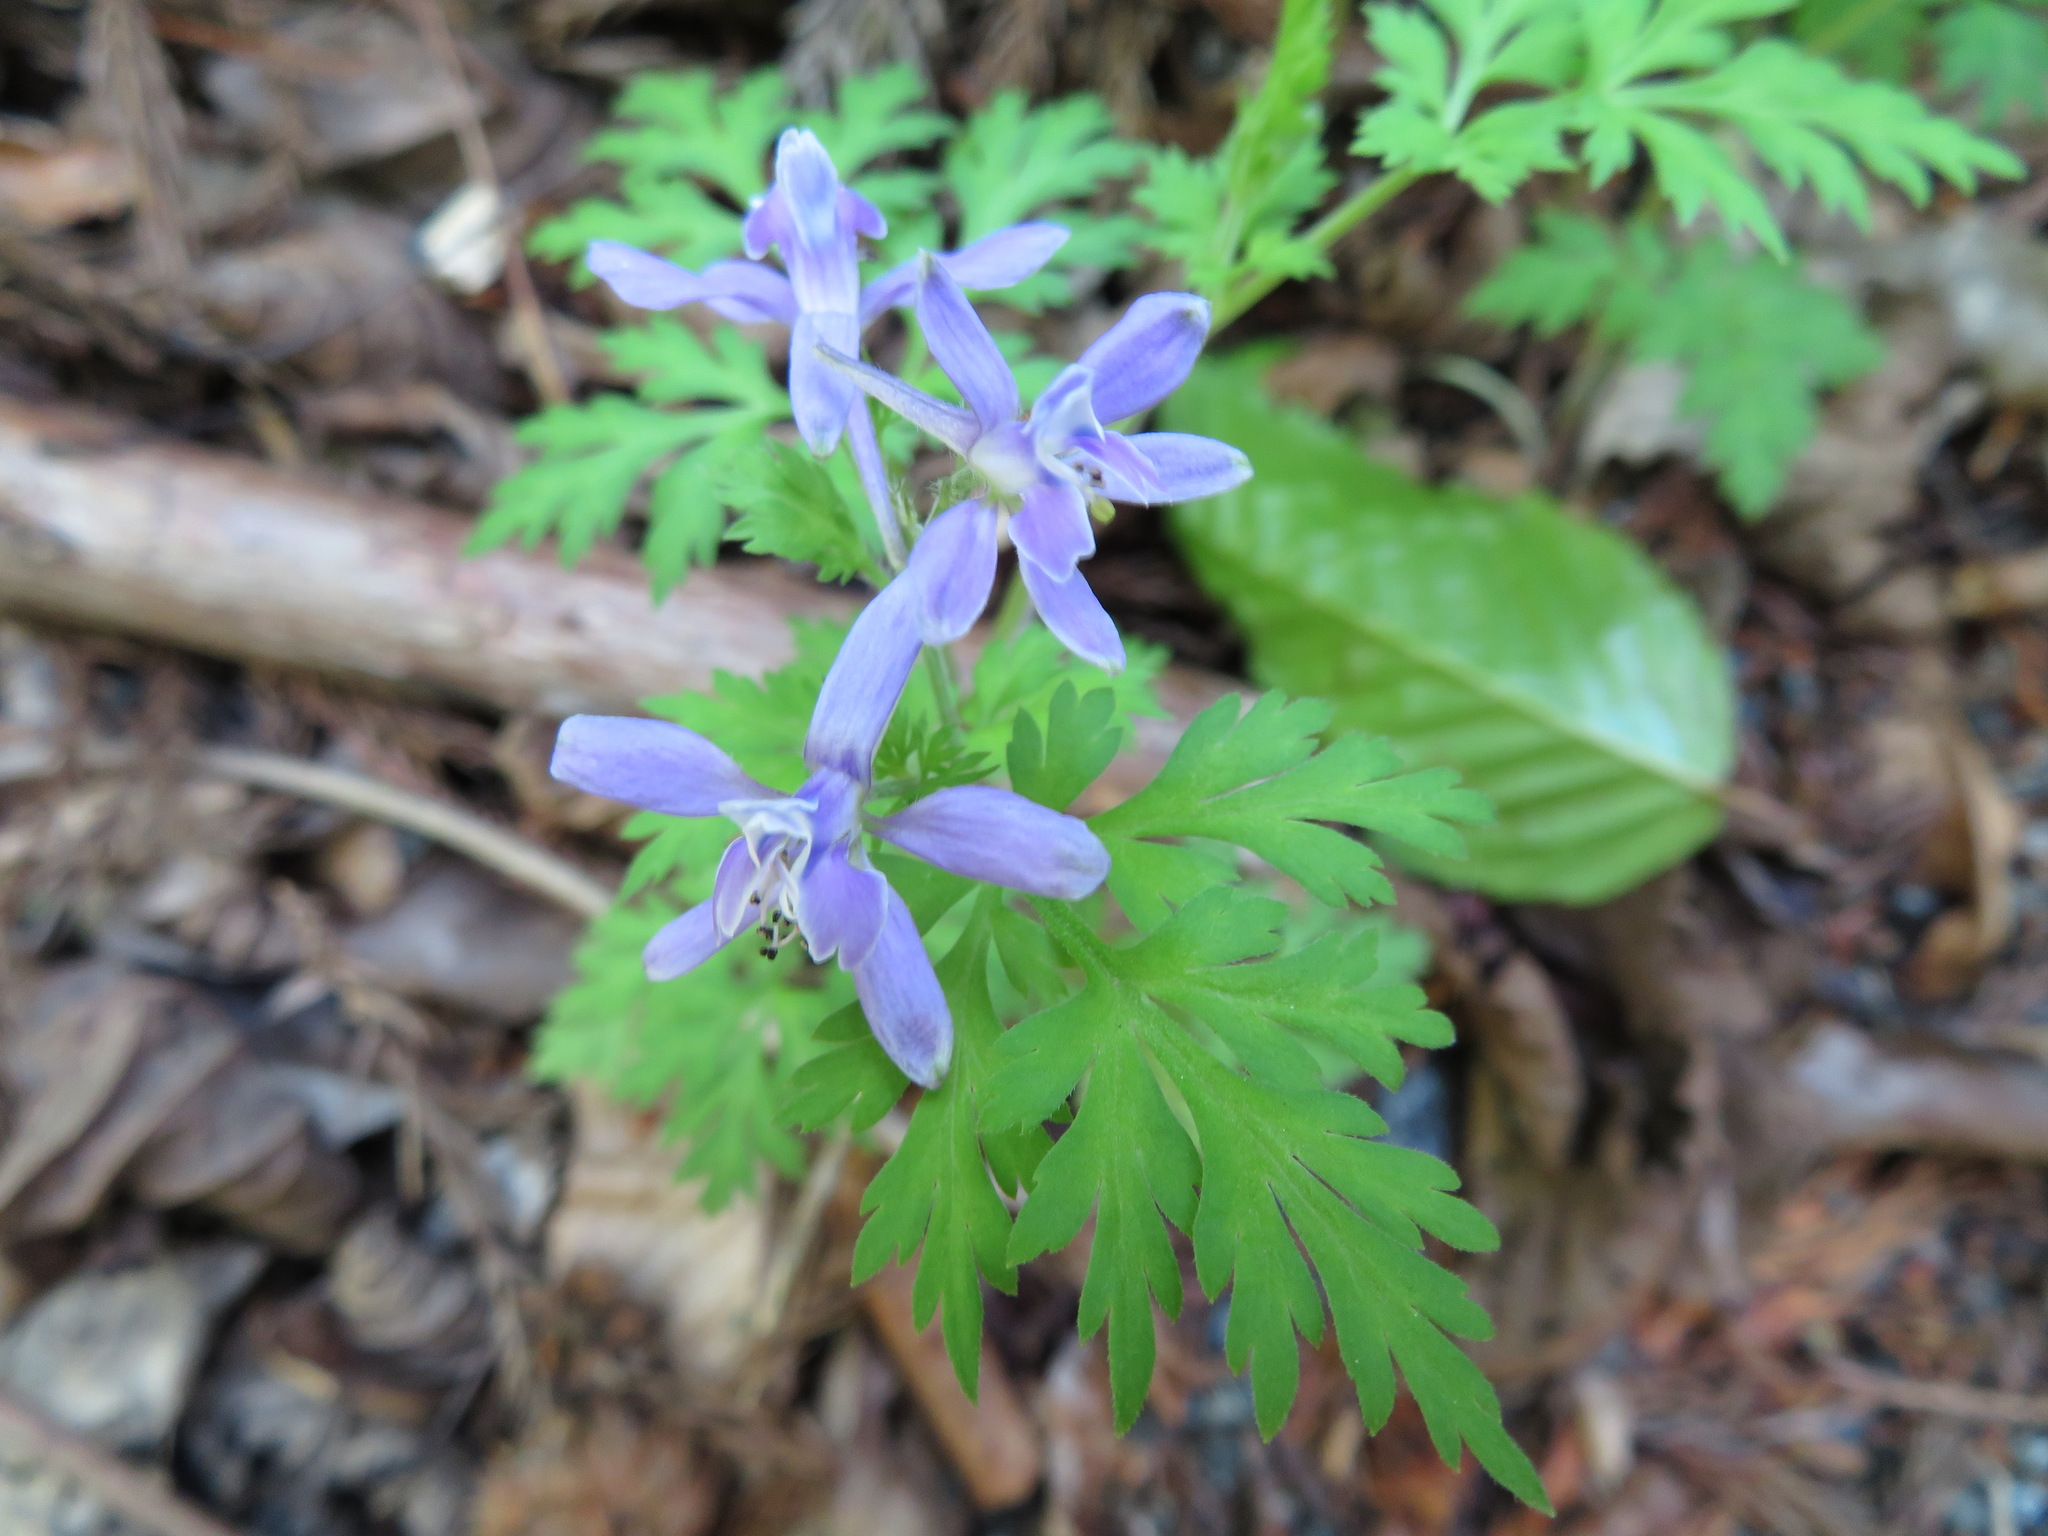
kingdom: Plantae
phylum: Tracheophyta
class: Magnoliopsida
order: Ranunculales
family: Ranunculaceae
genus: Delphinium
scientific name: Delphinium anthriscifolium
